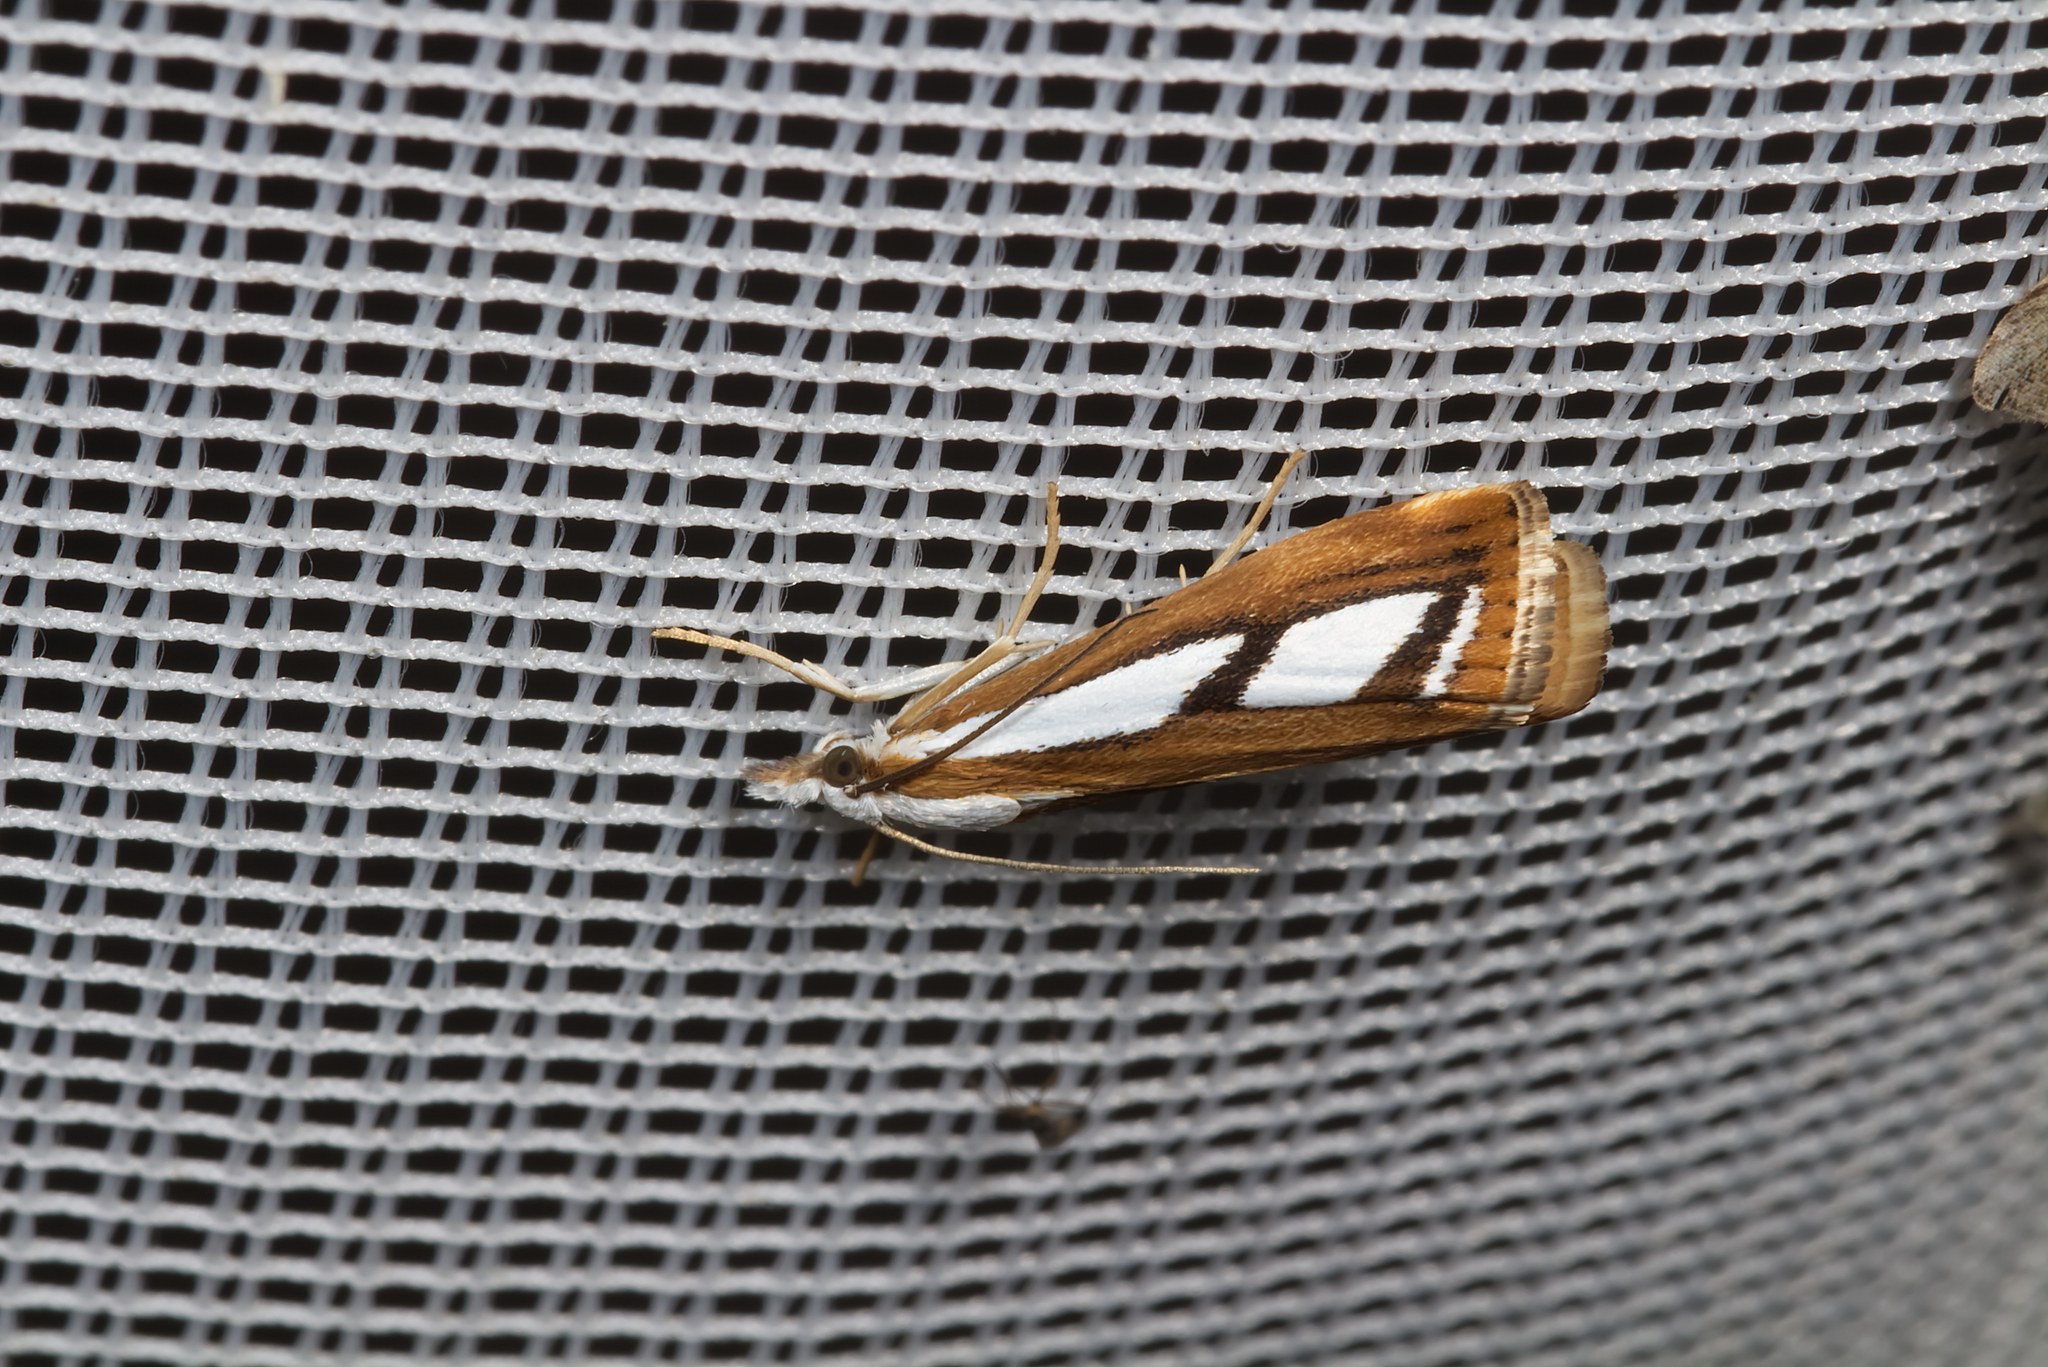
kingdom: Animalia
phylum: Arthropoda
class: Insecta
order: Lepidoptera
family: Crambidae
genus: Catoptria
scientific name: Catoptria
